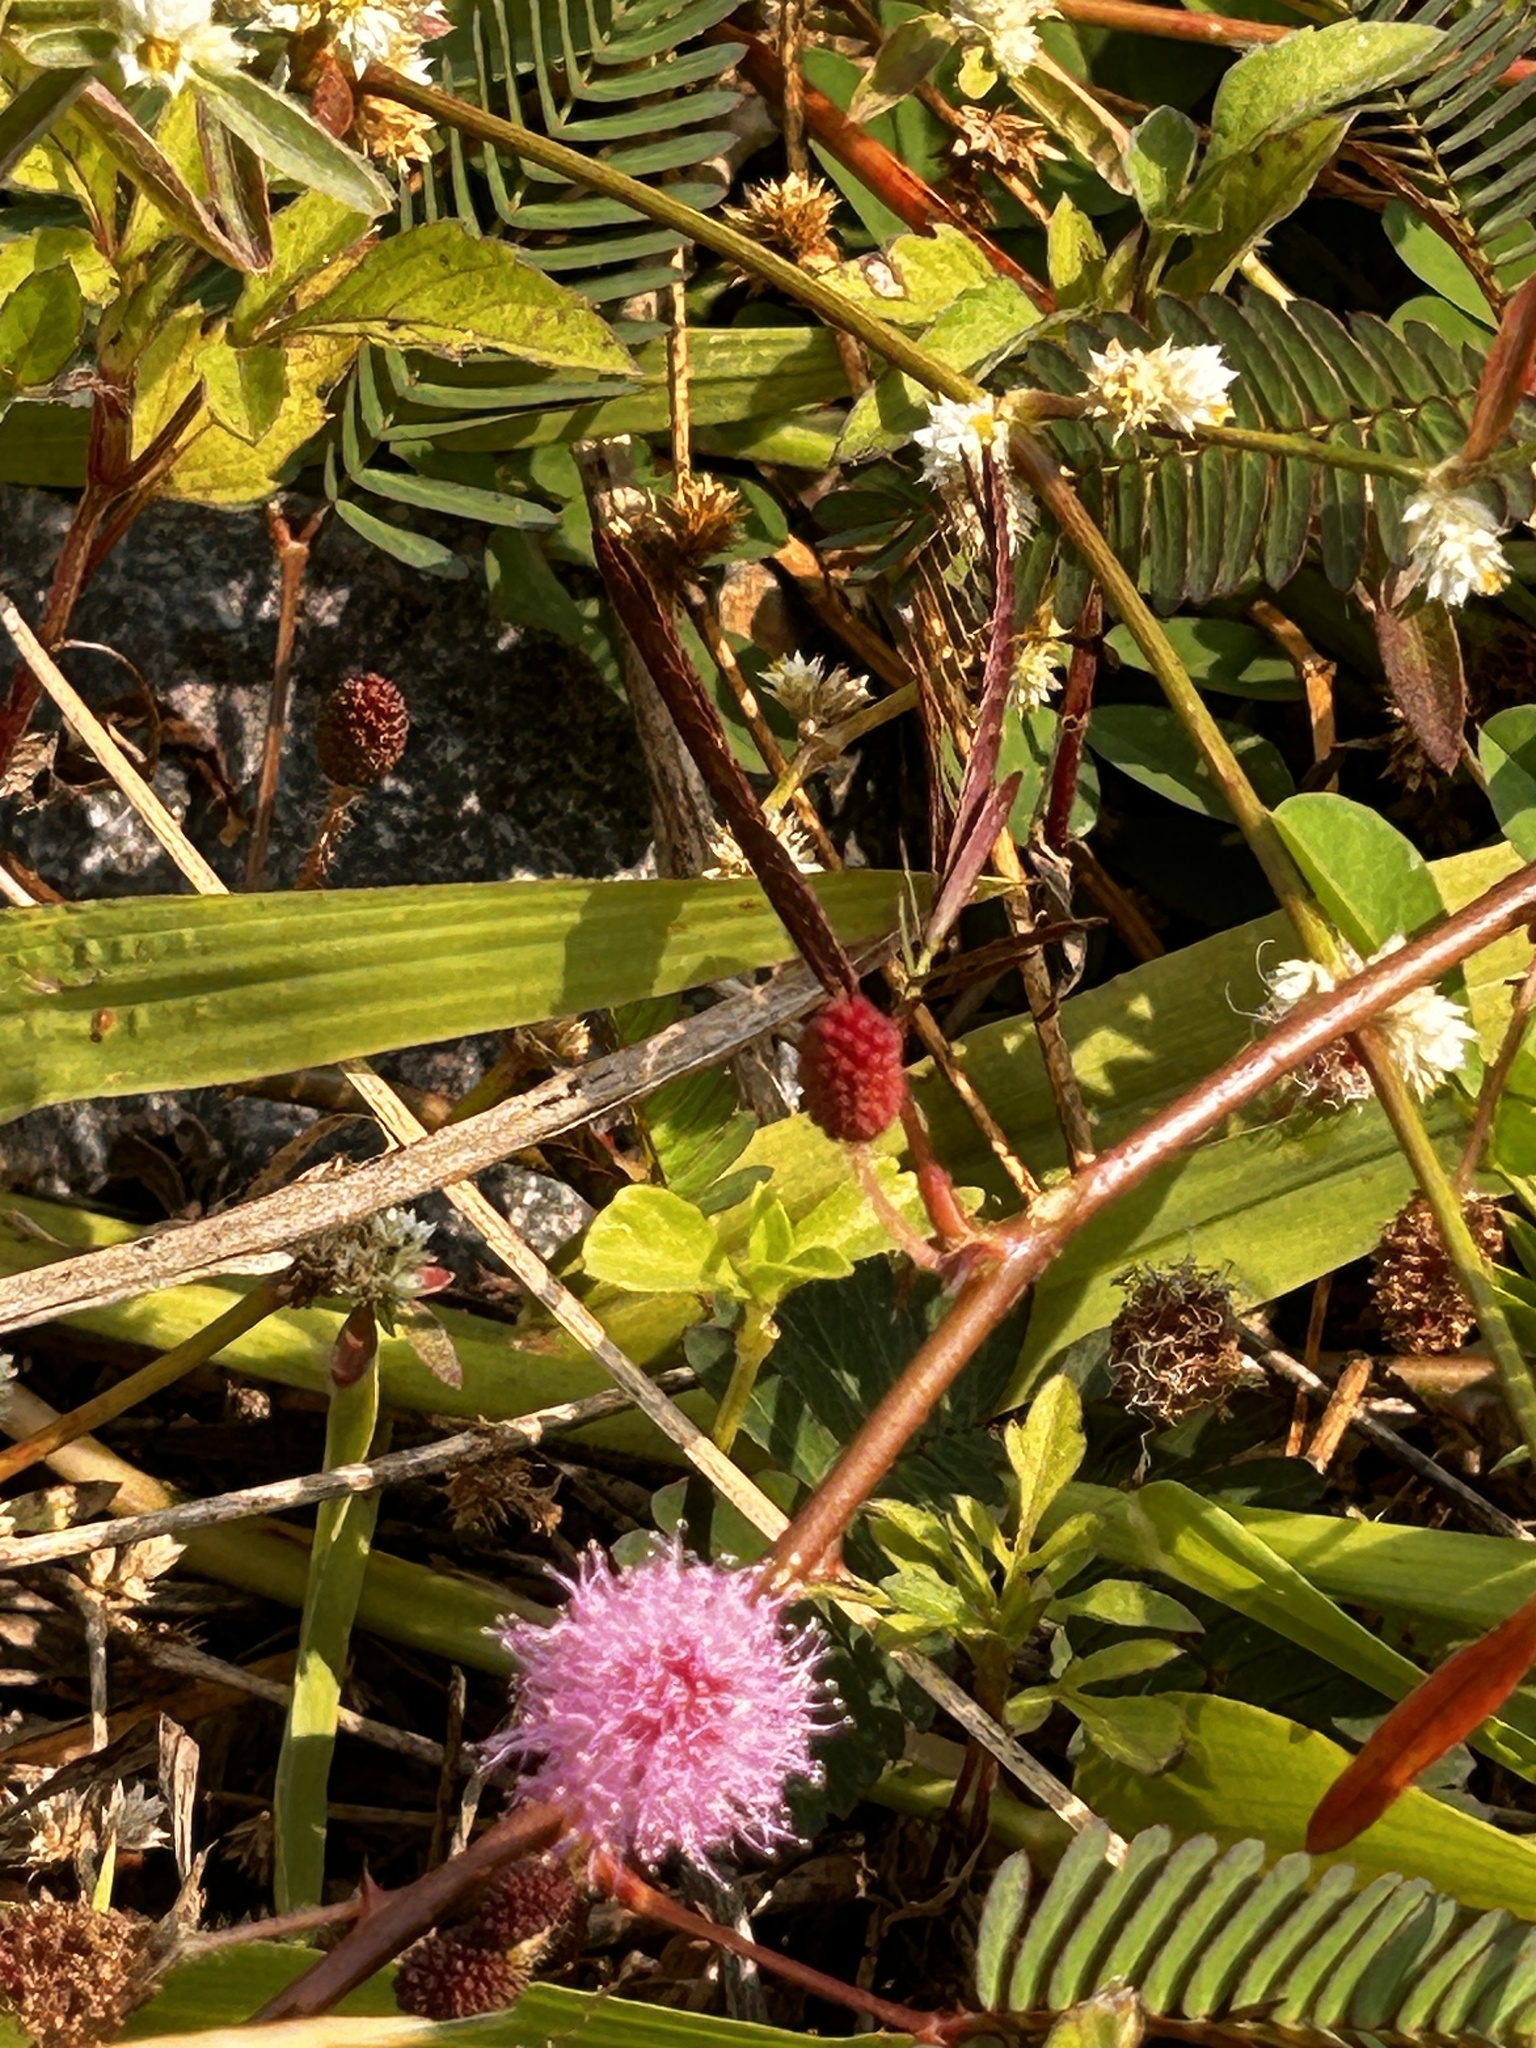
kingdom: Plantae
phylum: Tracheophyta
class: Magnoliopsida
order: Fabales
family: Fabaceae
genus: Mimosa
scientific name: Mimosa pudica
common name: Sensitive plant
